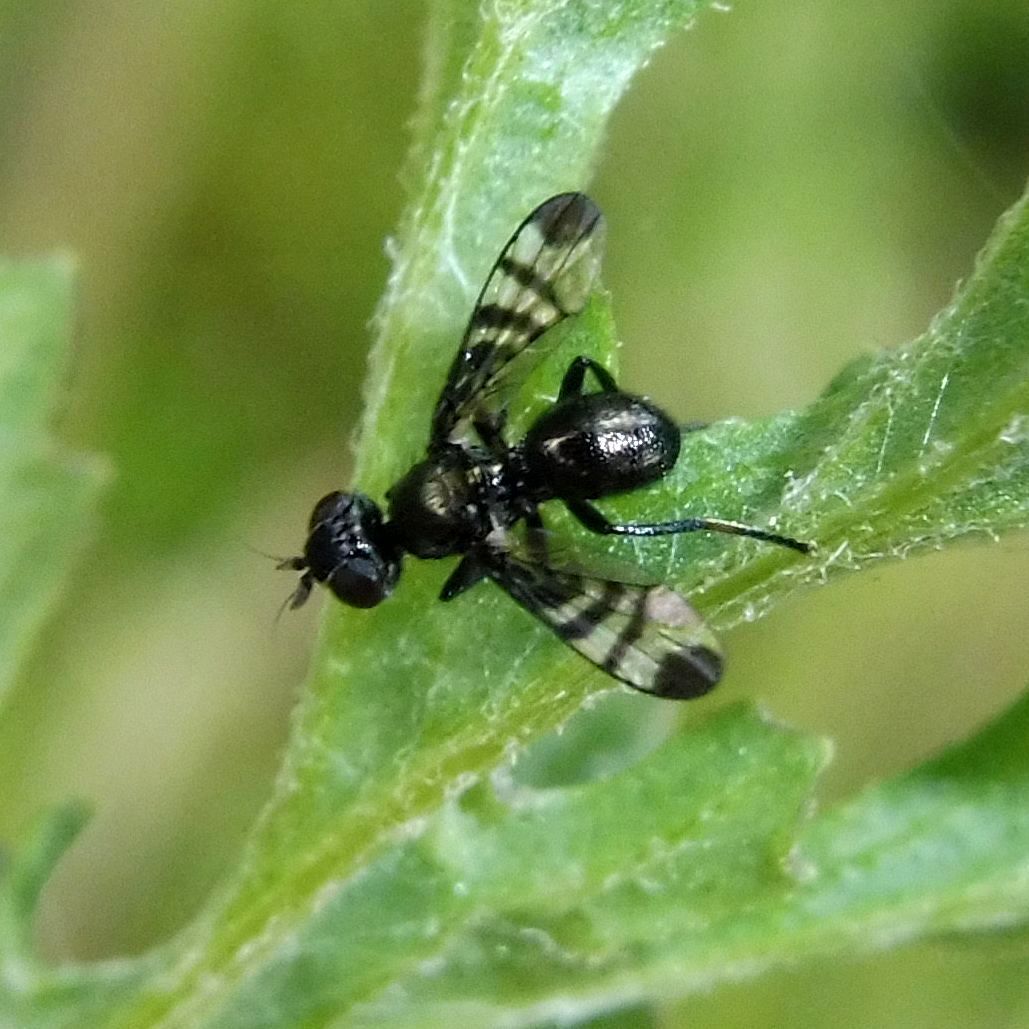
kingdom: Animalia
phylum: Arthropoda
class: Insecta
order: Diptera
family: Platystomatidae
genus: Rivellia
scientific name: Rivellia syngenesiae
